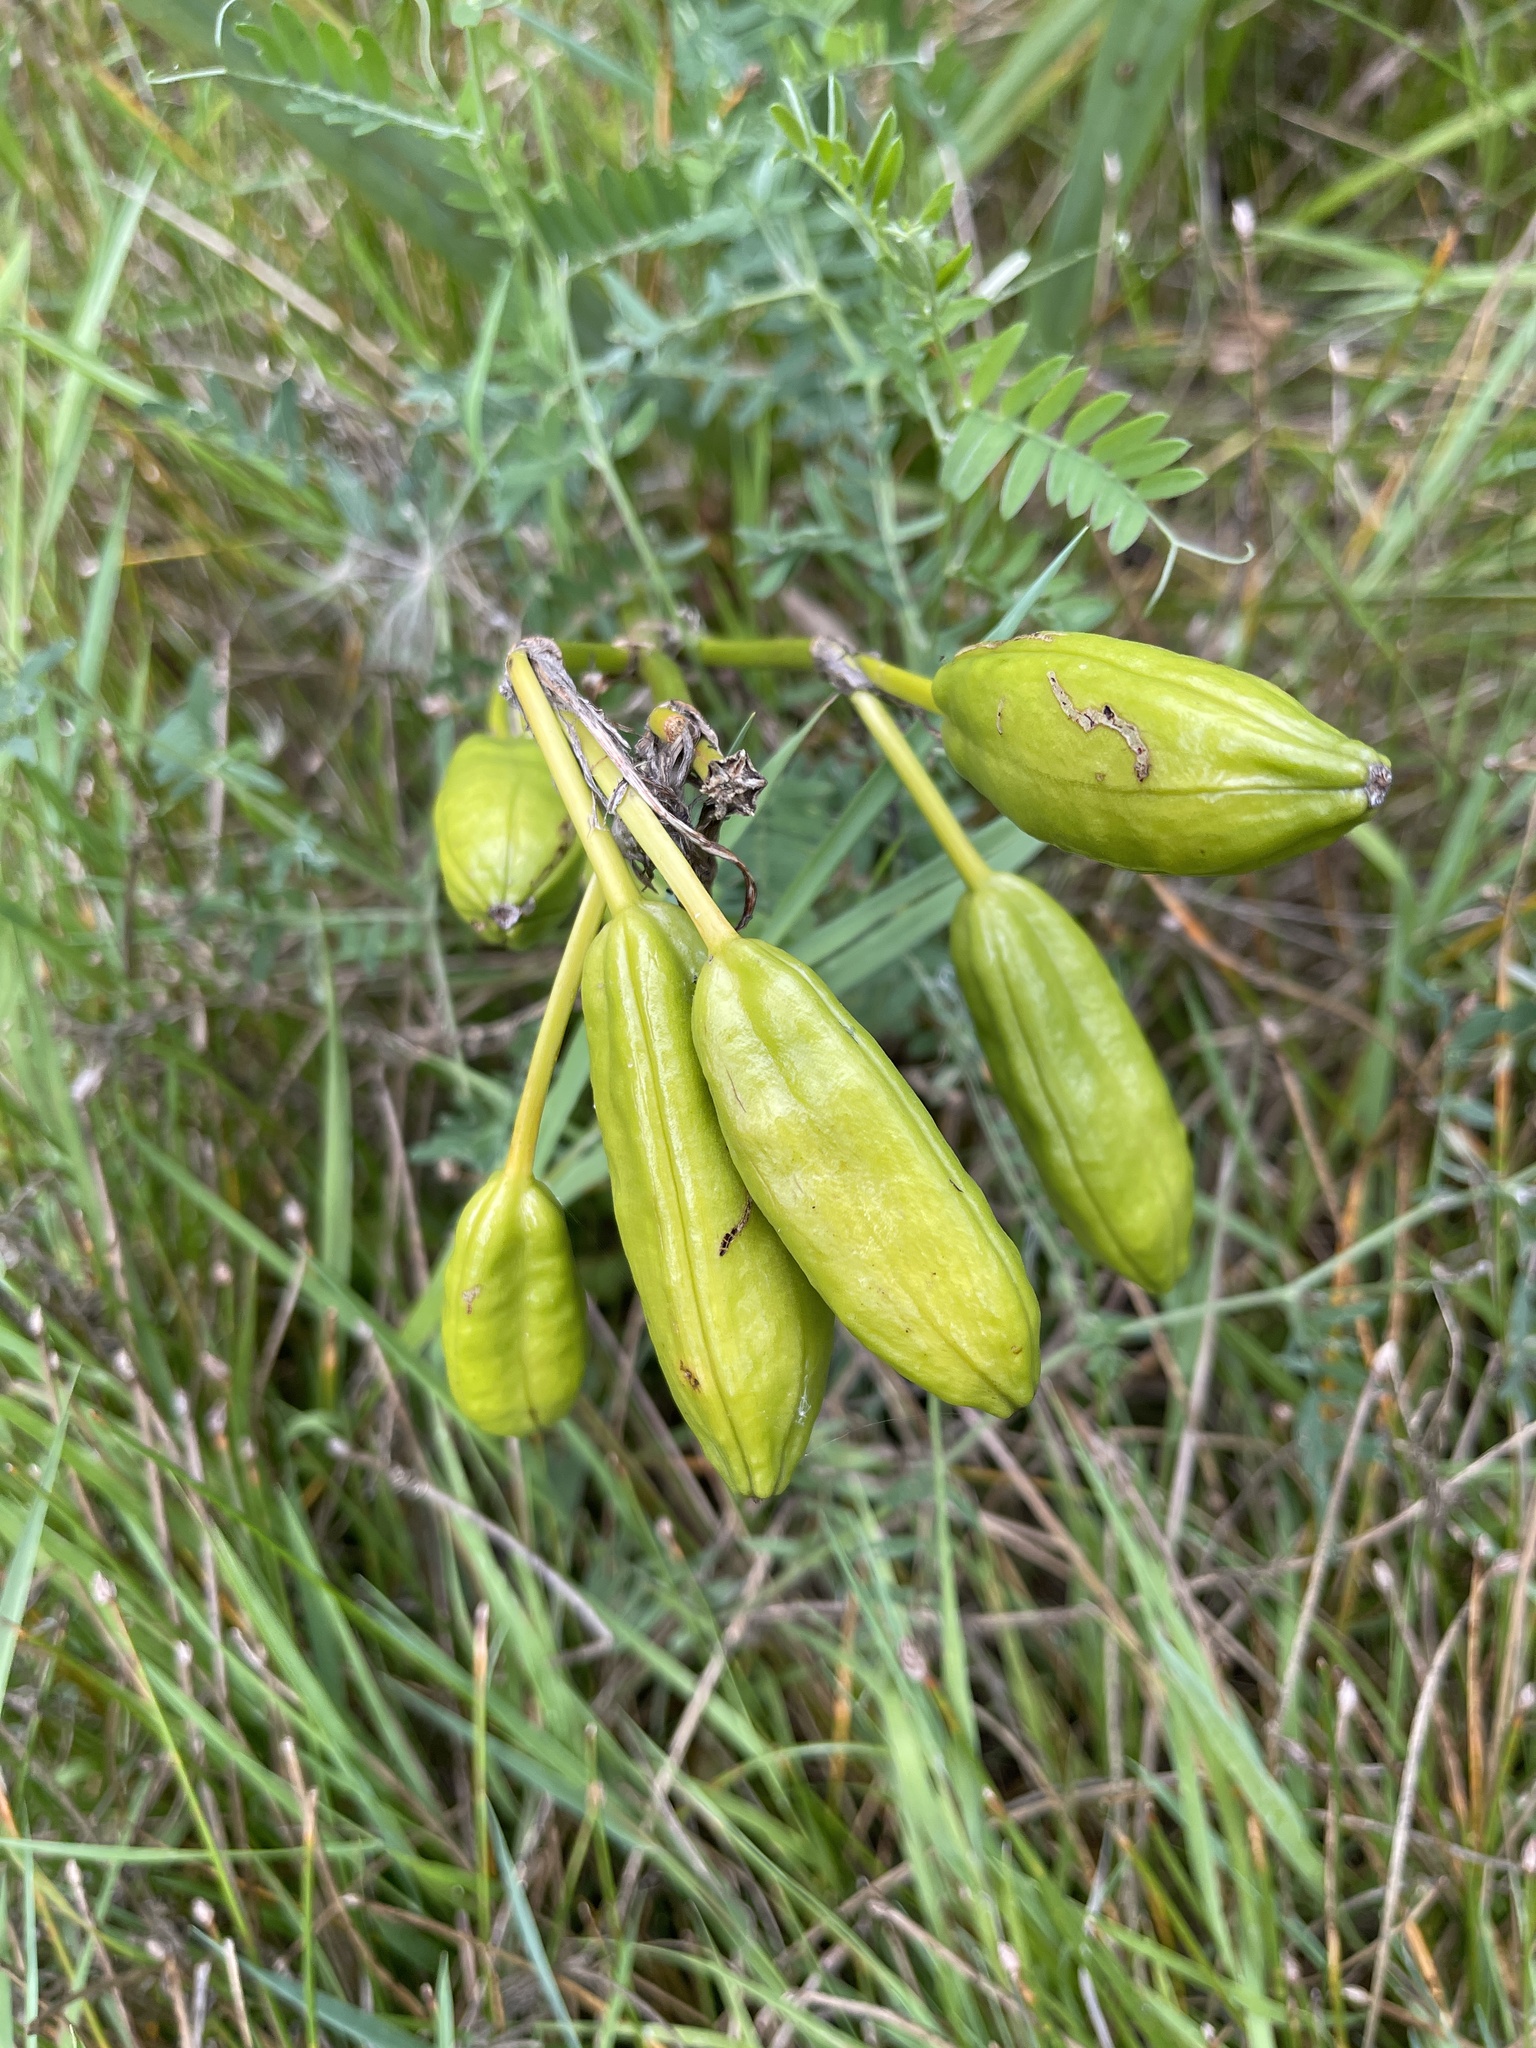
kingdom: Plantae
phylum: Tracheophyta
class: Liliopsida
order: Asparagales
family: Iridaceae
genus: Iris
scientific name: Iris pseudacorus
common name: Yellow flag
